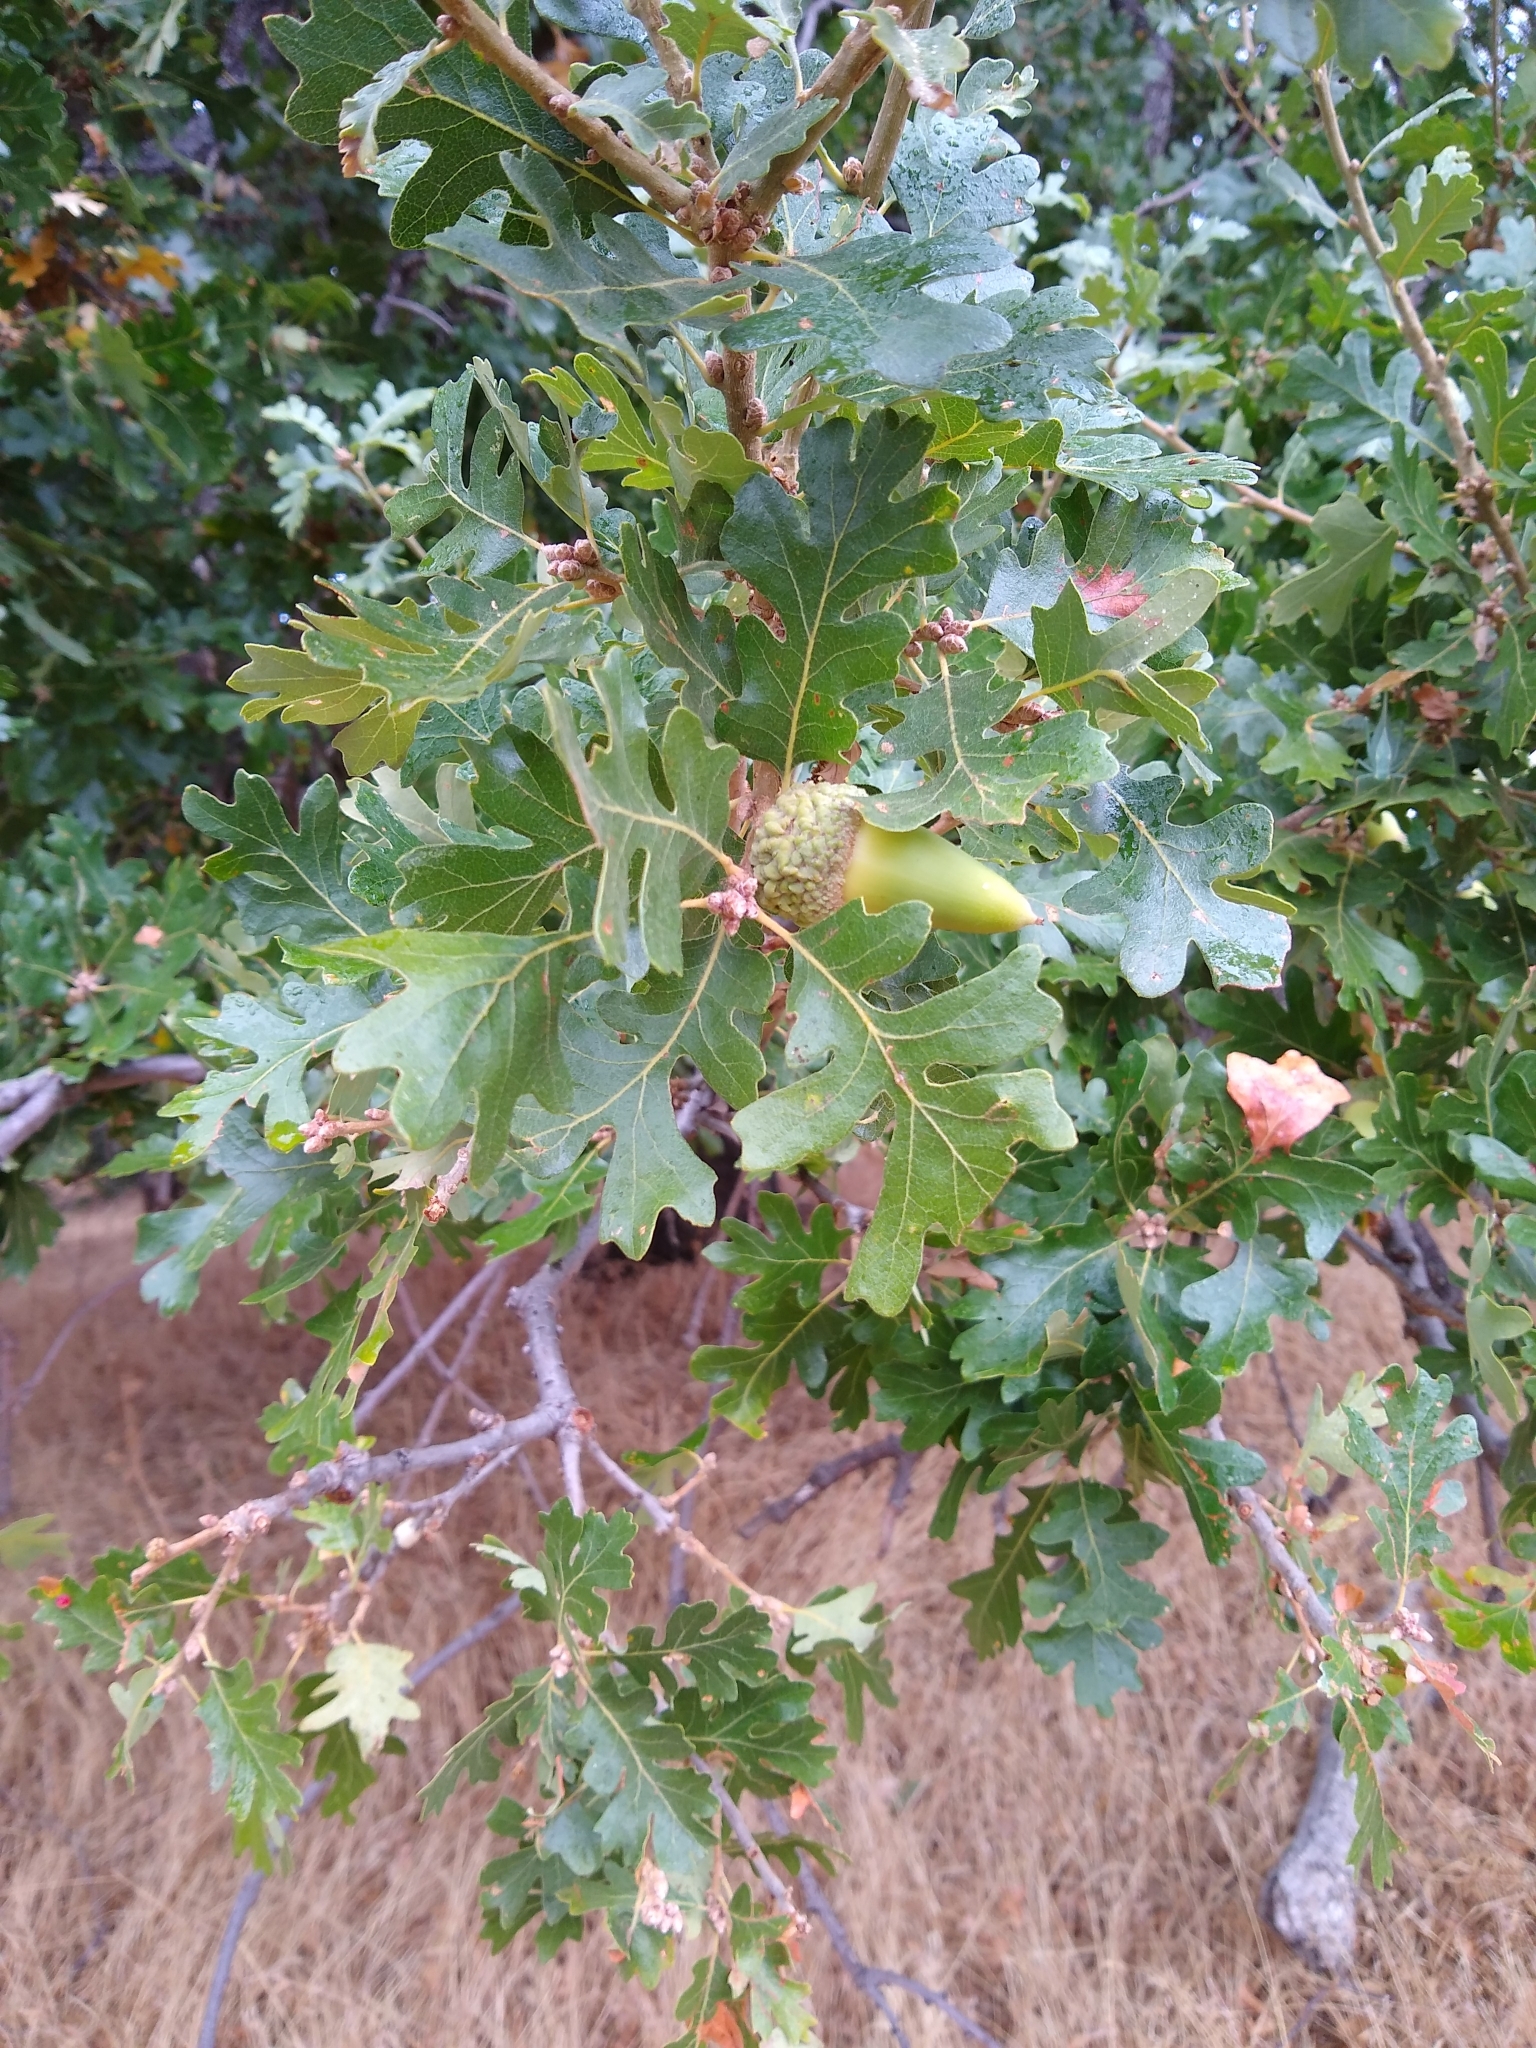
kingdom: Plantae
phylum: Tracheophyta
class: Magnoliopsida
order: Fagales
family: Fagaceae
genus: Quercus
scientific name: Quercus lobata
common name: Valley oak
